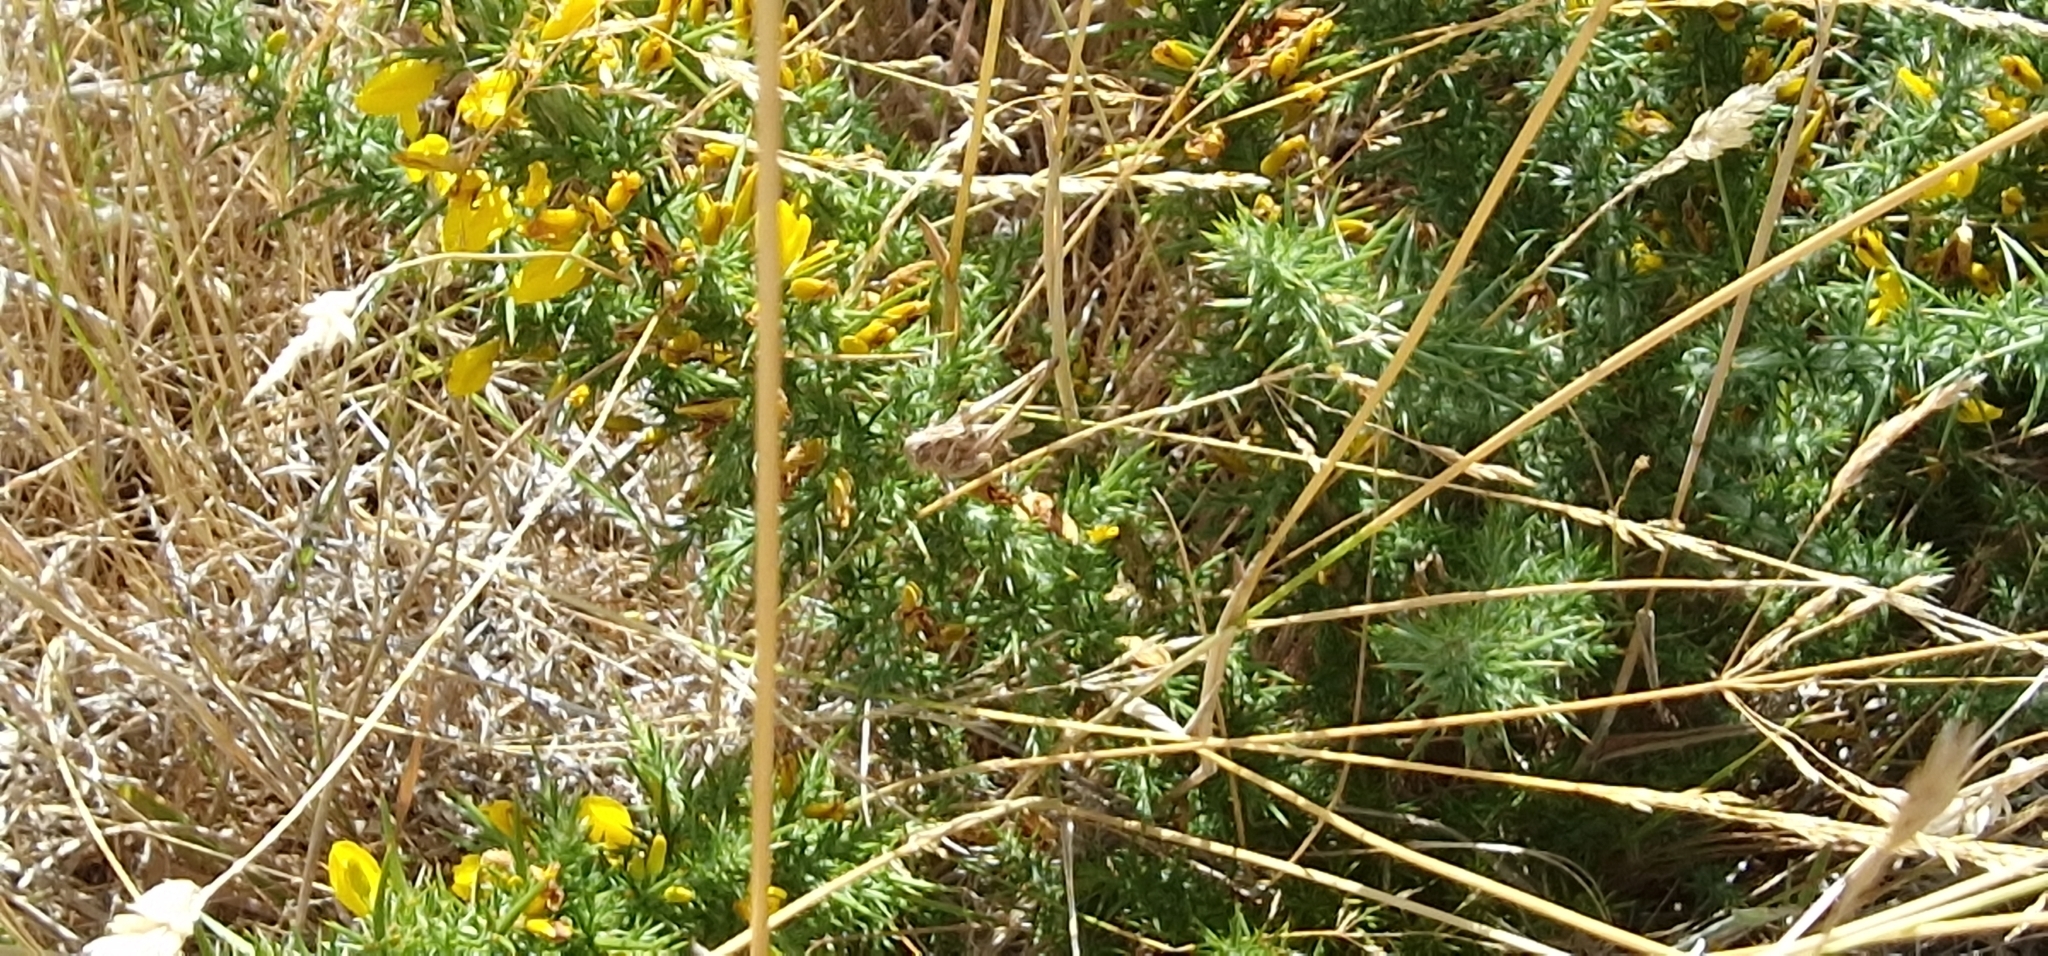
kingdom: Animalia
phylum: Arthropoda
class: Insecta
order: Orthoptera
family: Tettigoniidae
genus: Tessellana
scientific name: Tessellana tessellata
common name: Grasshopper
